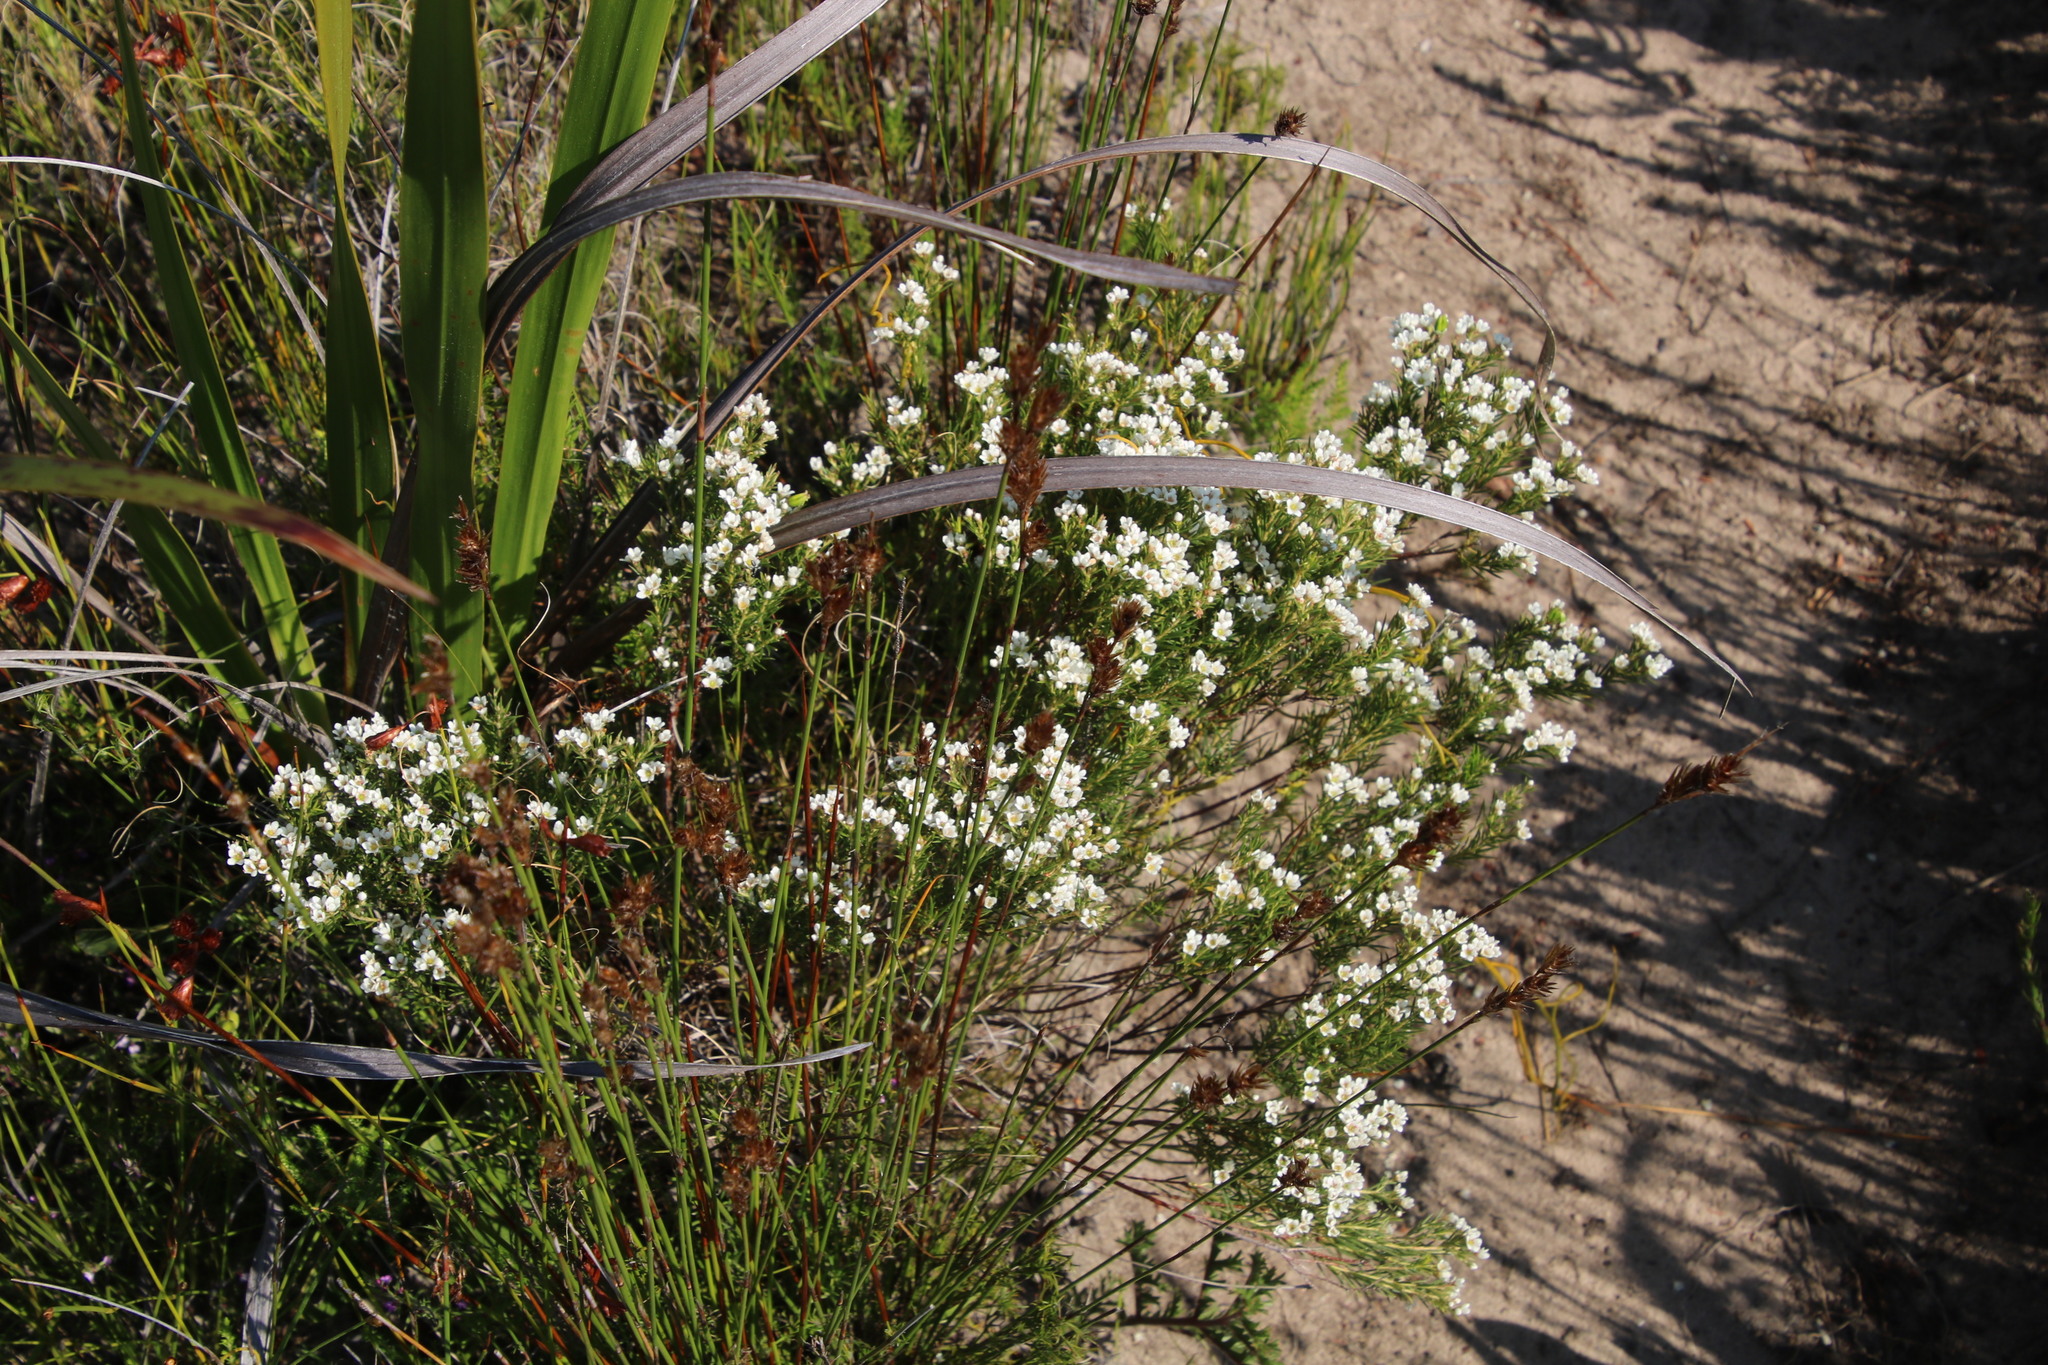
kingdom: Plantae
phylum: Tracheophyta
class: Magnoliopsida
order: Sapindales
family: Rutaceae
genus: Diosma
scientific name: Diosma hirsuta
